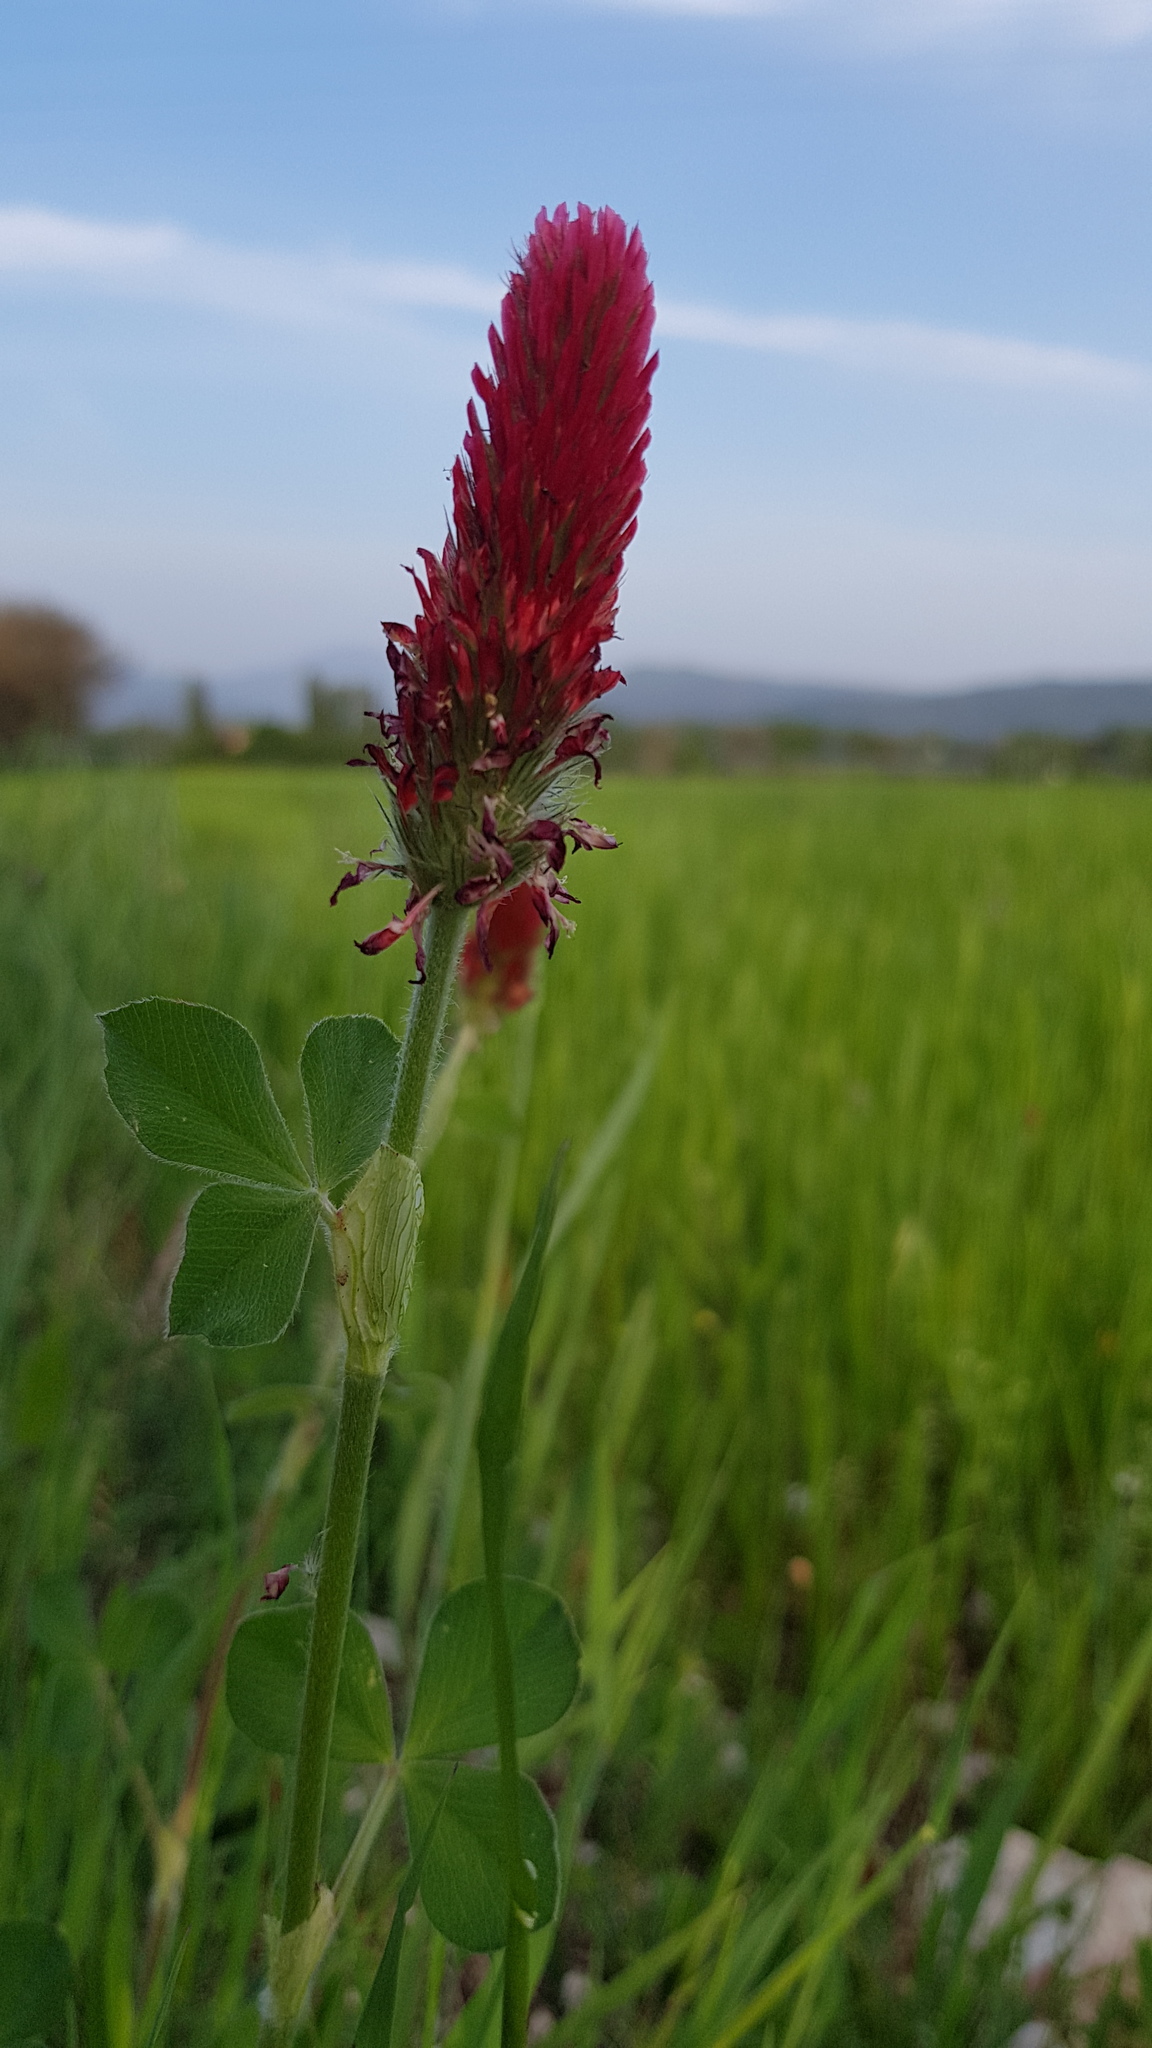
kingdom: Plantae
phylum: Tracheophyta
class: Magnoliopsida
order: Fabales
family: Fabaceae
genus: Trifolium
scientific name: Trifolium incarnatum
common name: Crimson clover
